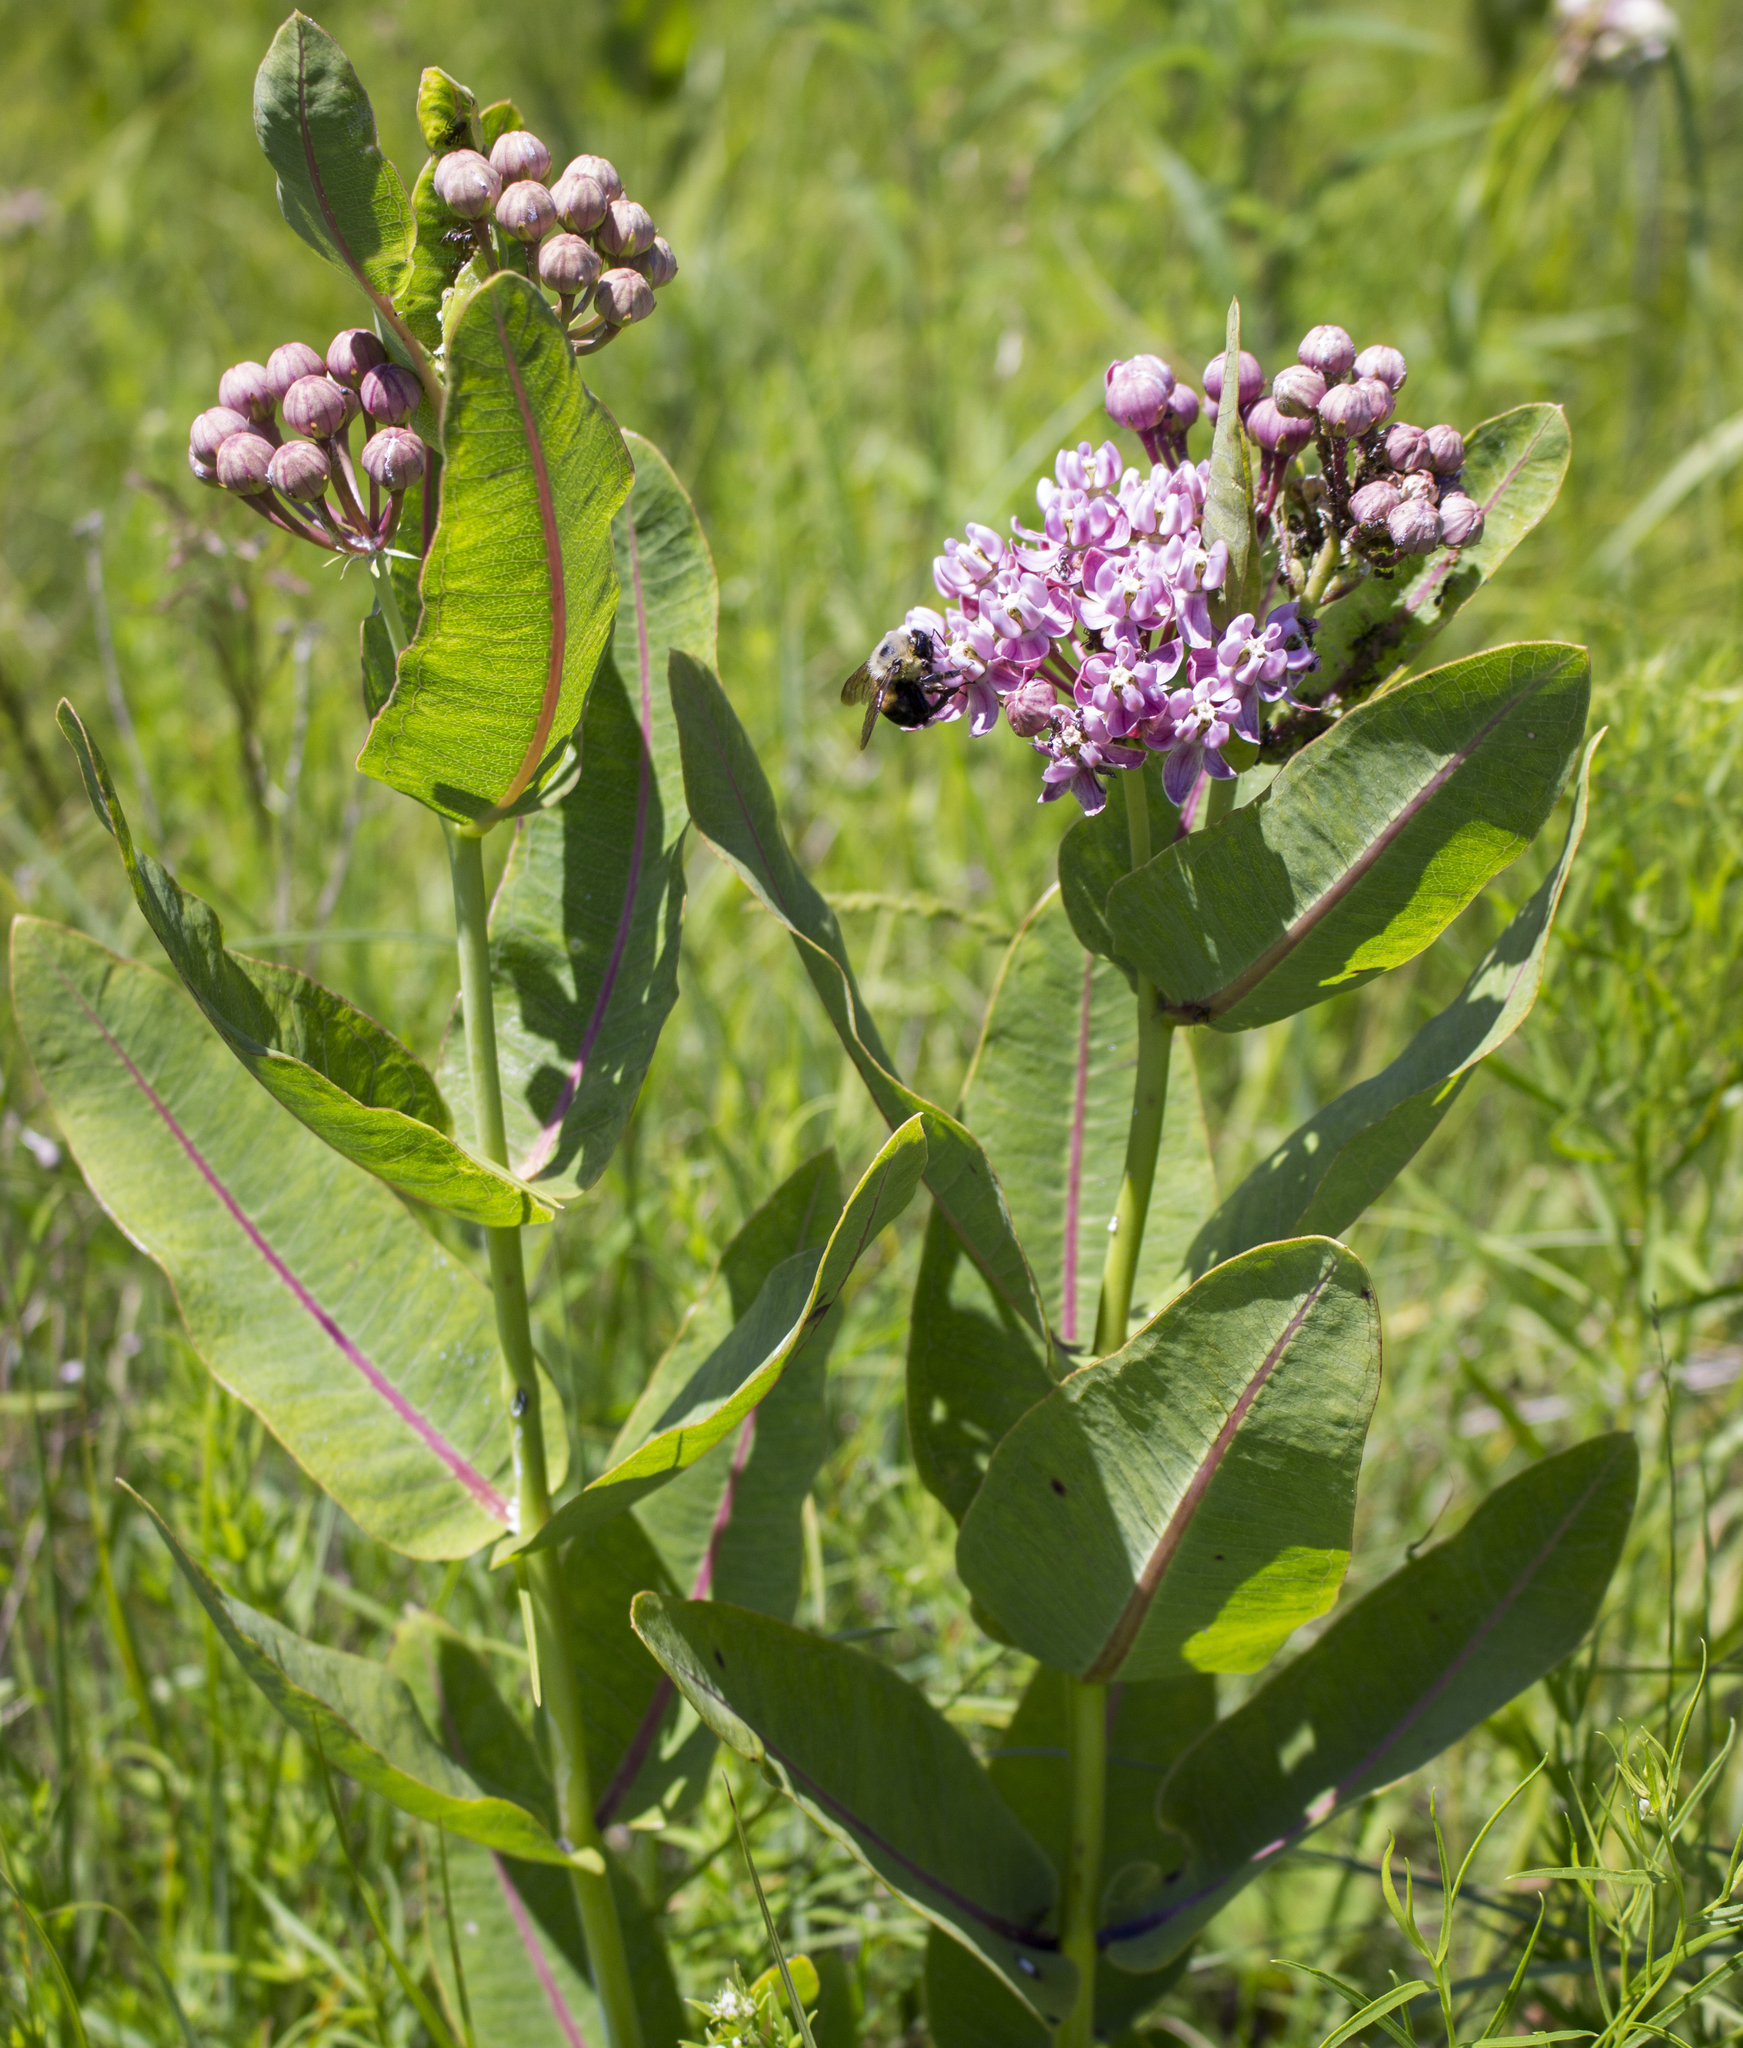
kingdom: Plantae
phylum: Tracheophyta
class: Magnoliopsida
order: Gentianales
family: Apocynaceae
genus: Asclepias
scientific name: Asclepias sullivantii
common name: Prairie milkweed
